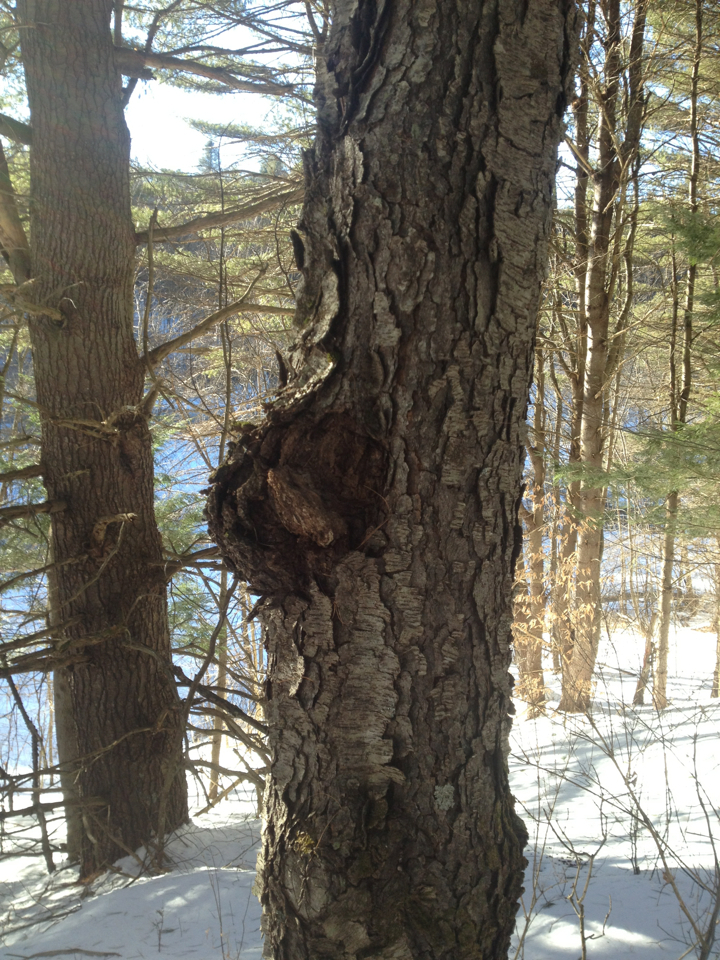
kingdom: Plantae
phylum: Tracheophyta
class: Magnoliopsida
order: Rosales
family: Rosaceae
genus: Prunus
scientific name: Prunus serotina
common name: Black cherry
